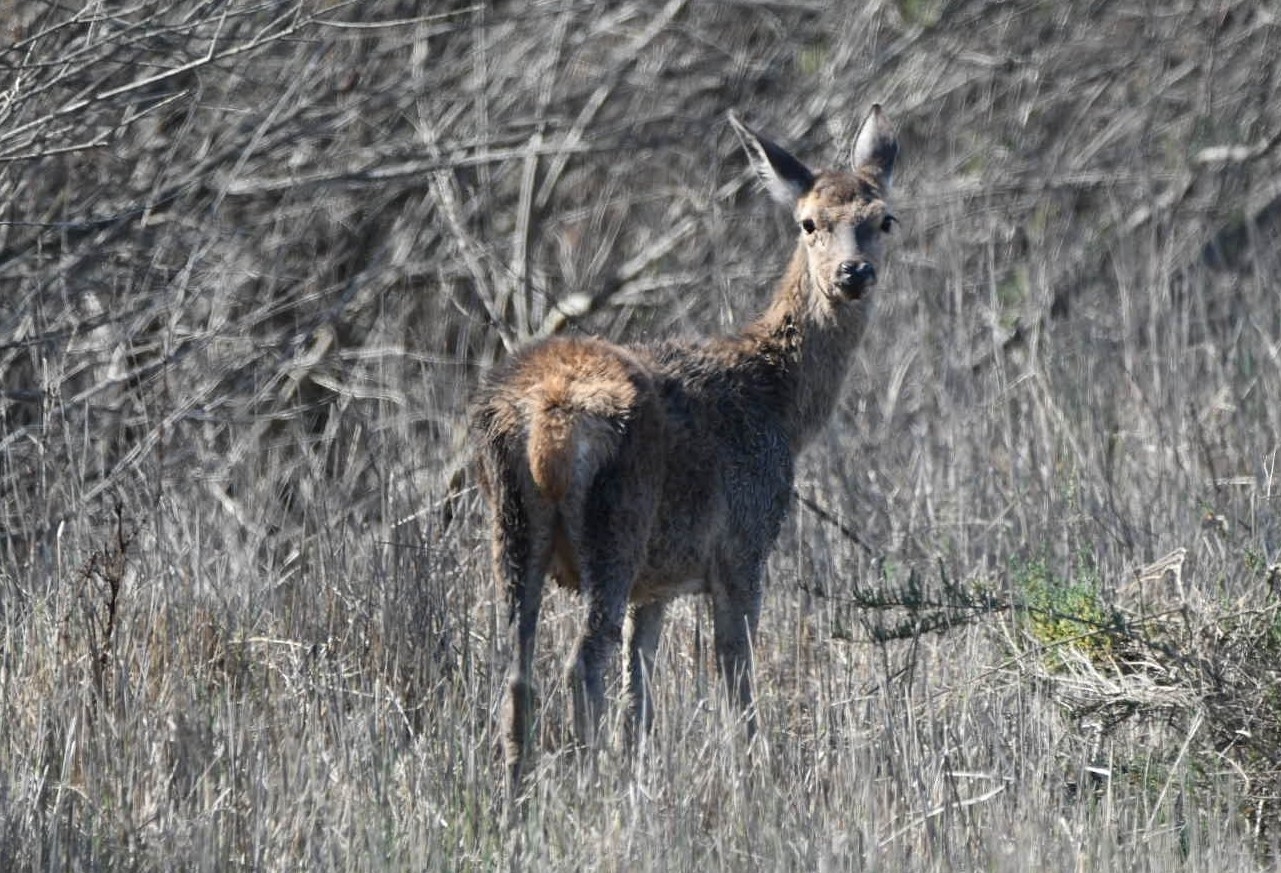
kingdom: Animalia
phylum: Chordata
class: Mammalia
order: Artiodactyla
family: Cervidae
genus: Cervus
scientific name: Cervus elaphus
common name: Red deer
